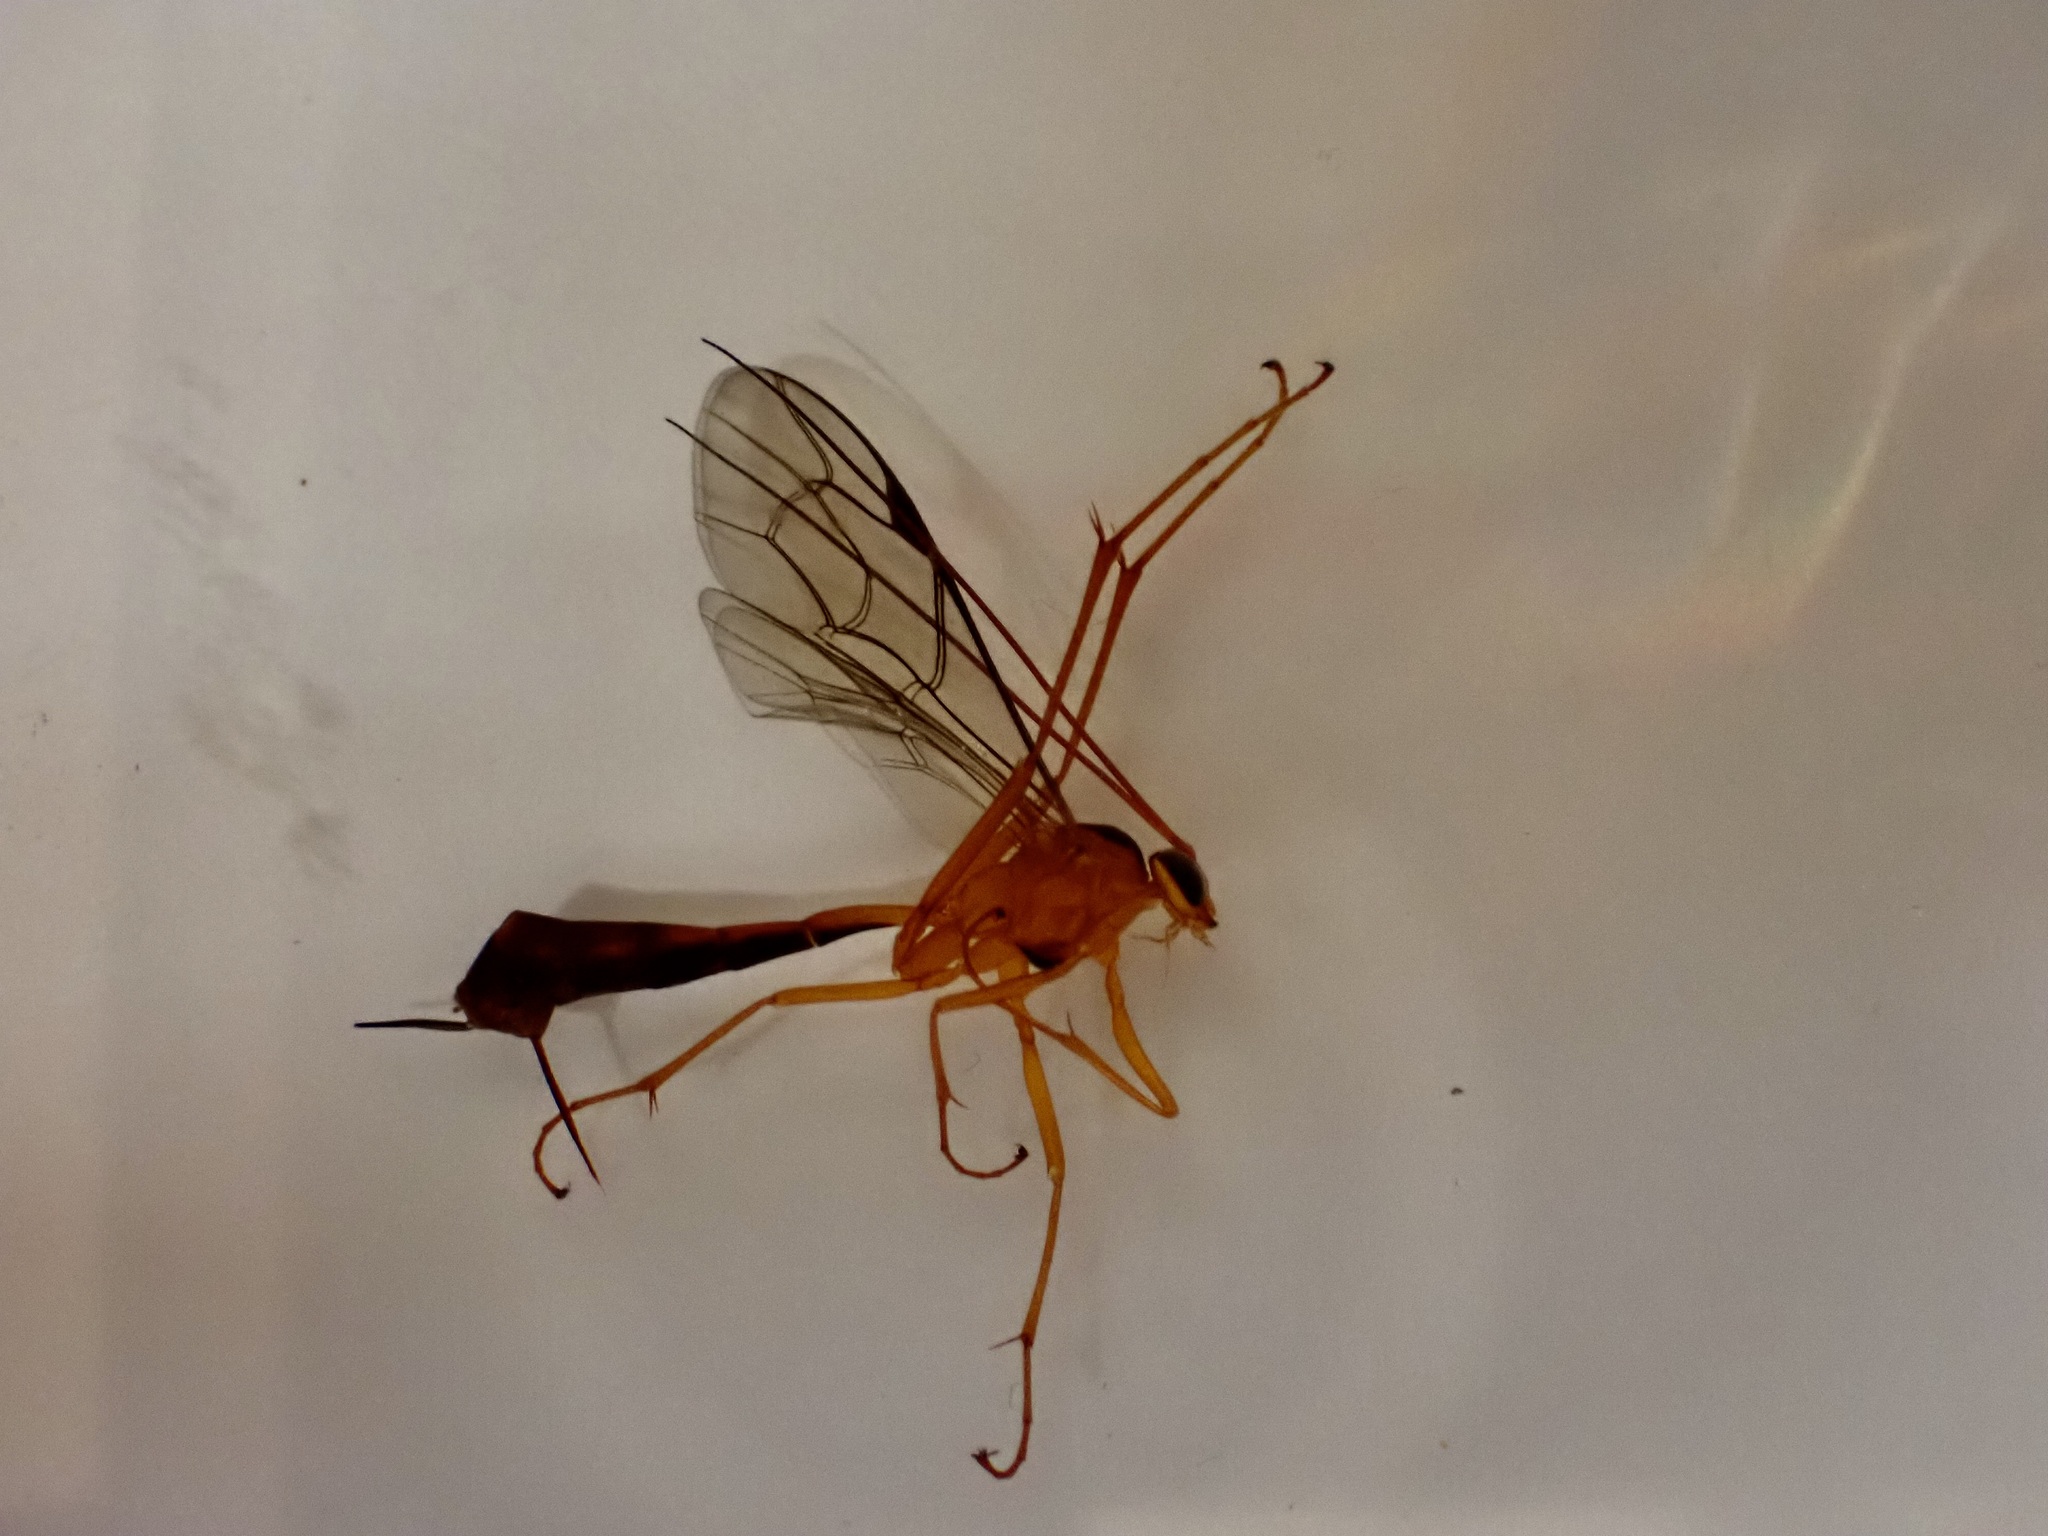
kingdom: Animalia
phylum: Arthropoda
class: Insecta
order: Hymenoptera
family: Ichneumonidae
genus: Netelia
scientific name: Netelia ephippiata
